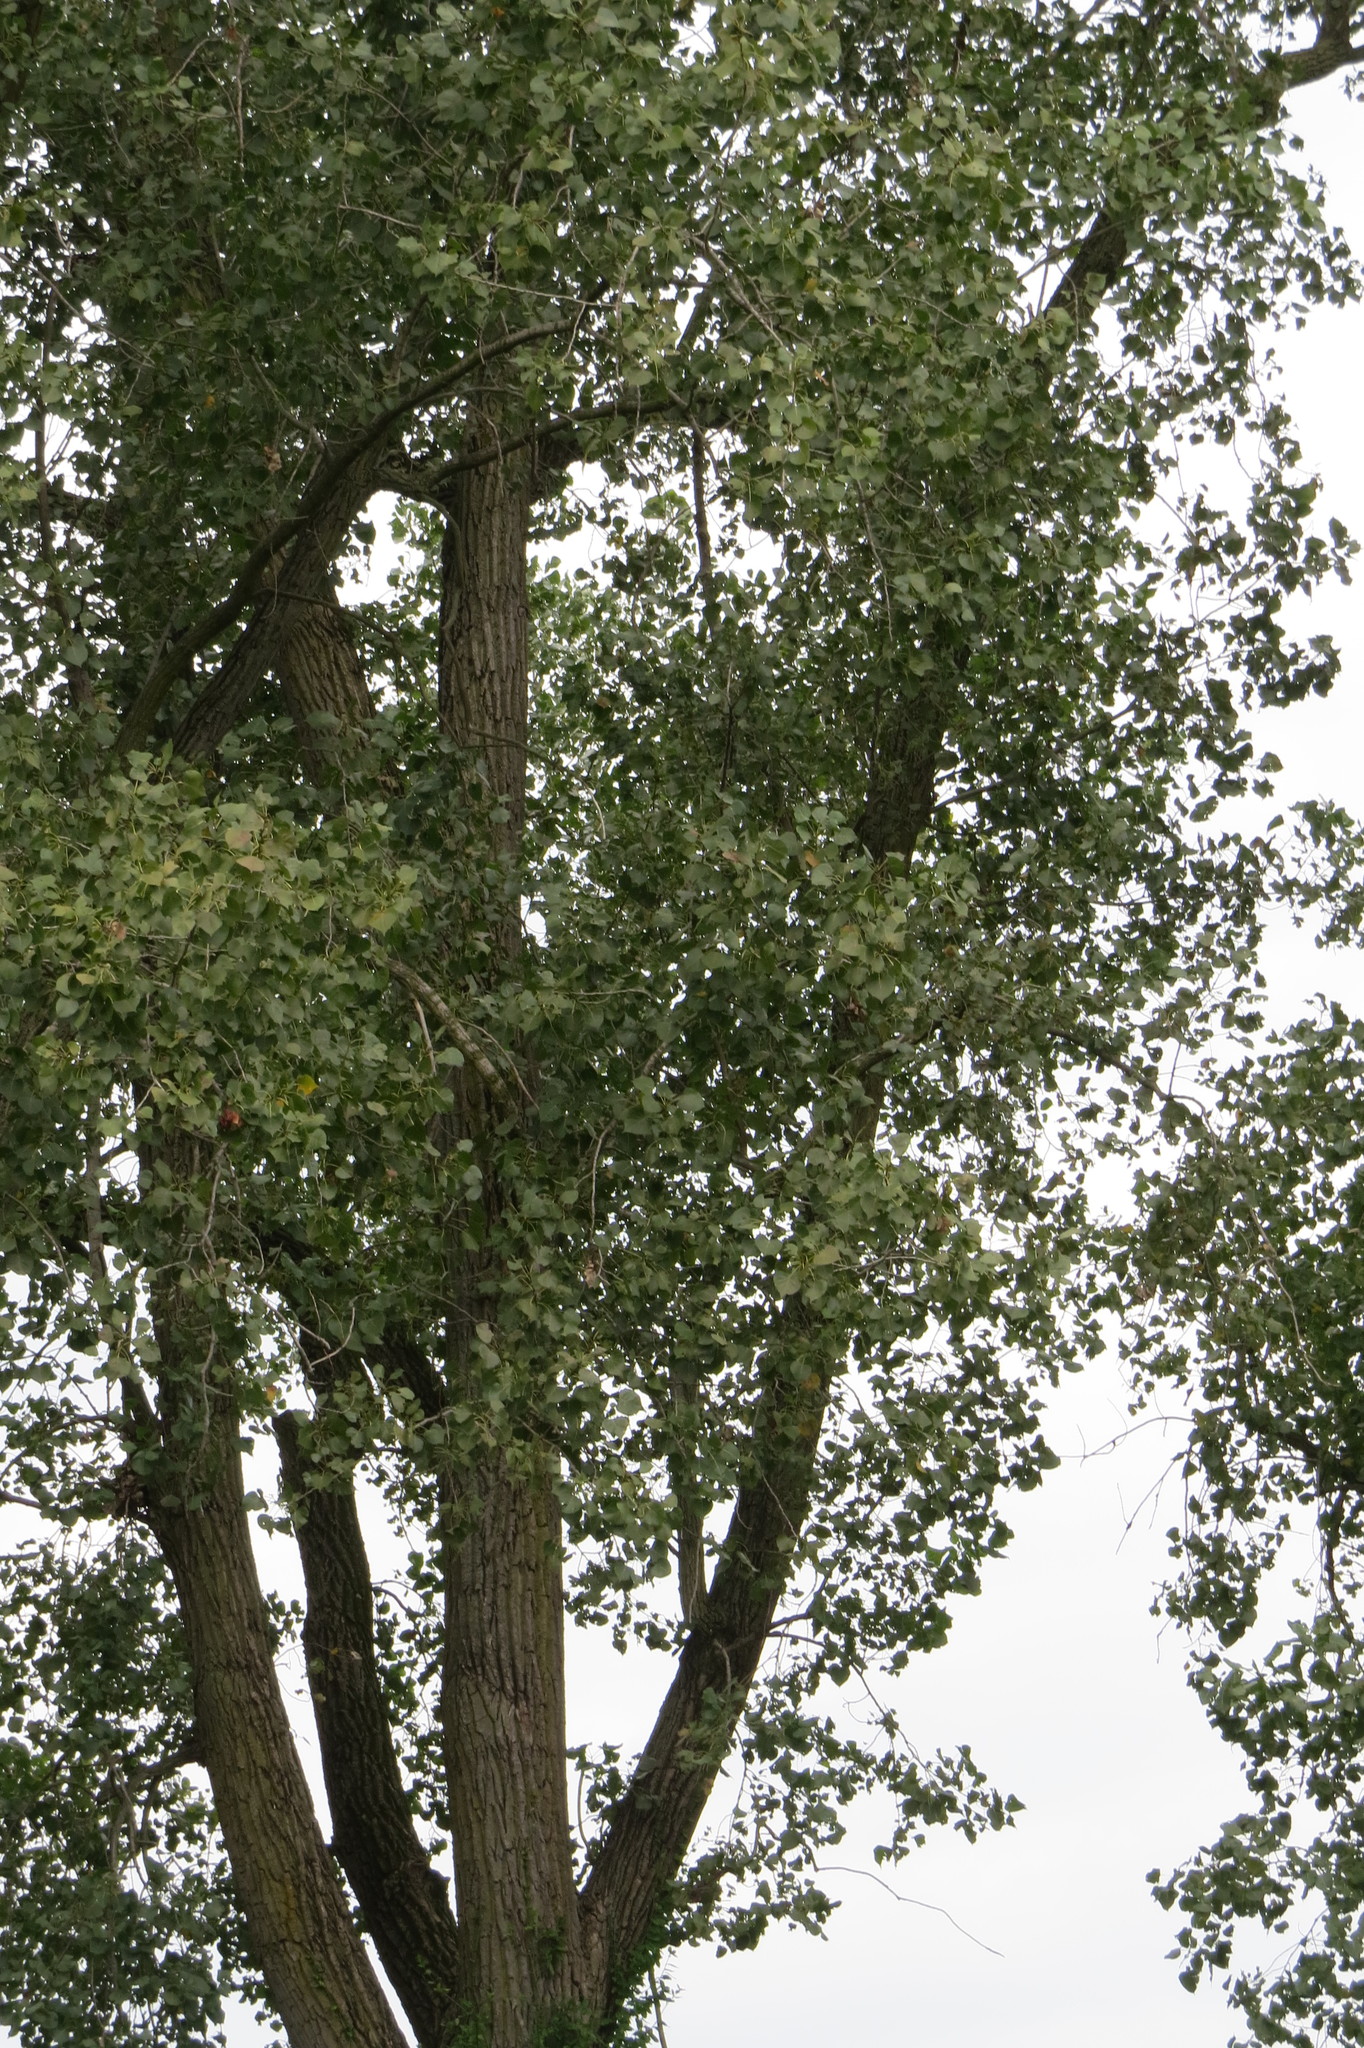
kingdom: Plantae
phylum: Tracheophyta
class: Magnoliopsida
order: Malpighiales
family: Salicaceae
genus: Populus
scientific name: Populus deltoides
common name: Eastern cottonwood
